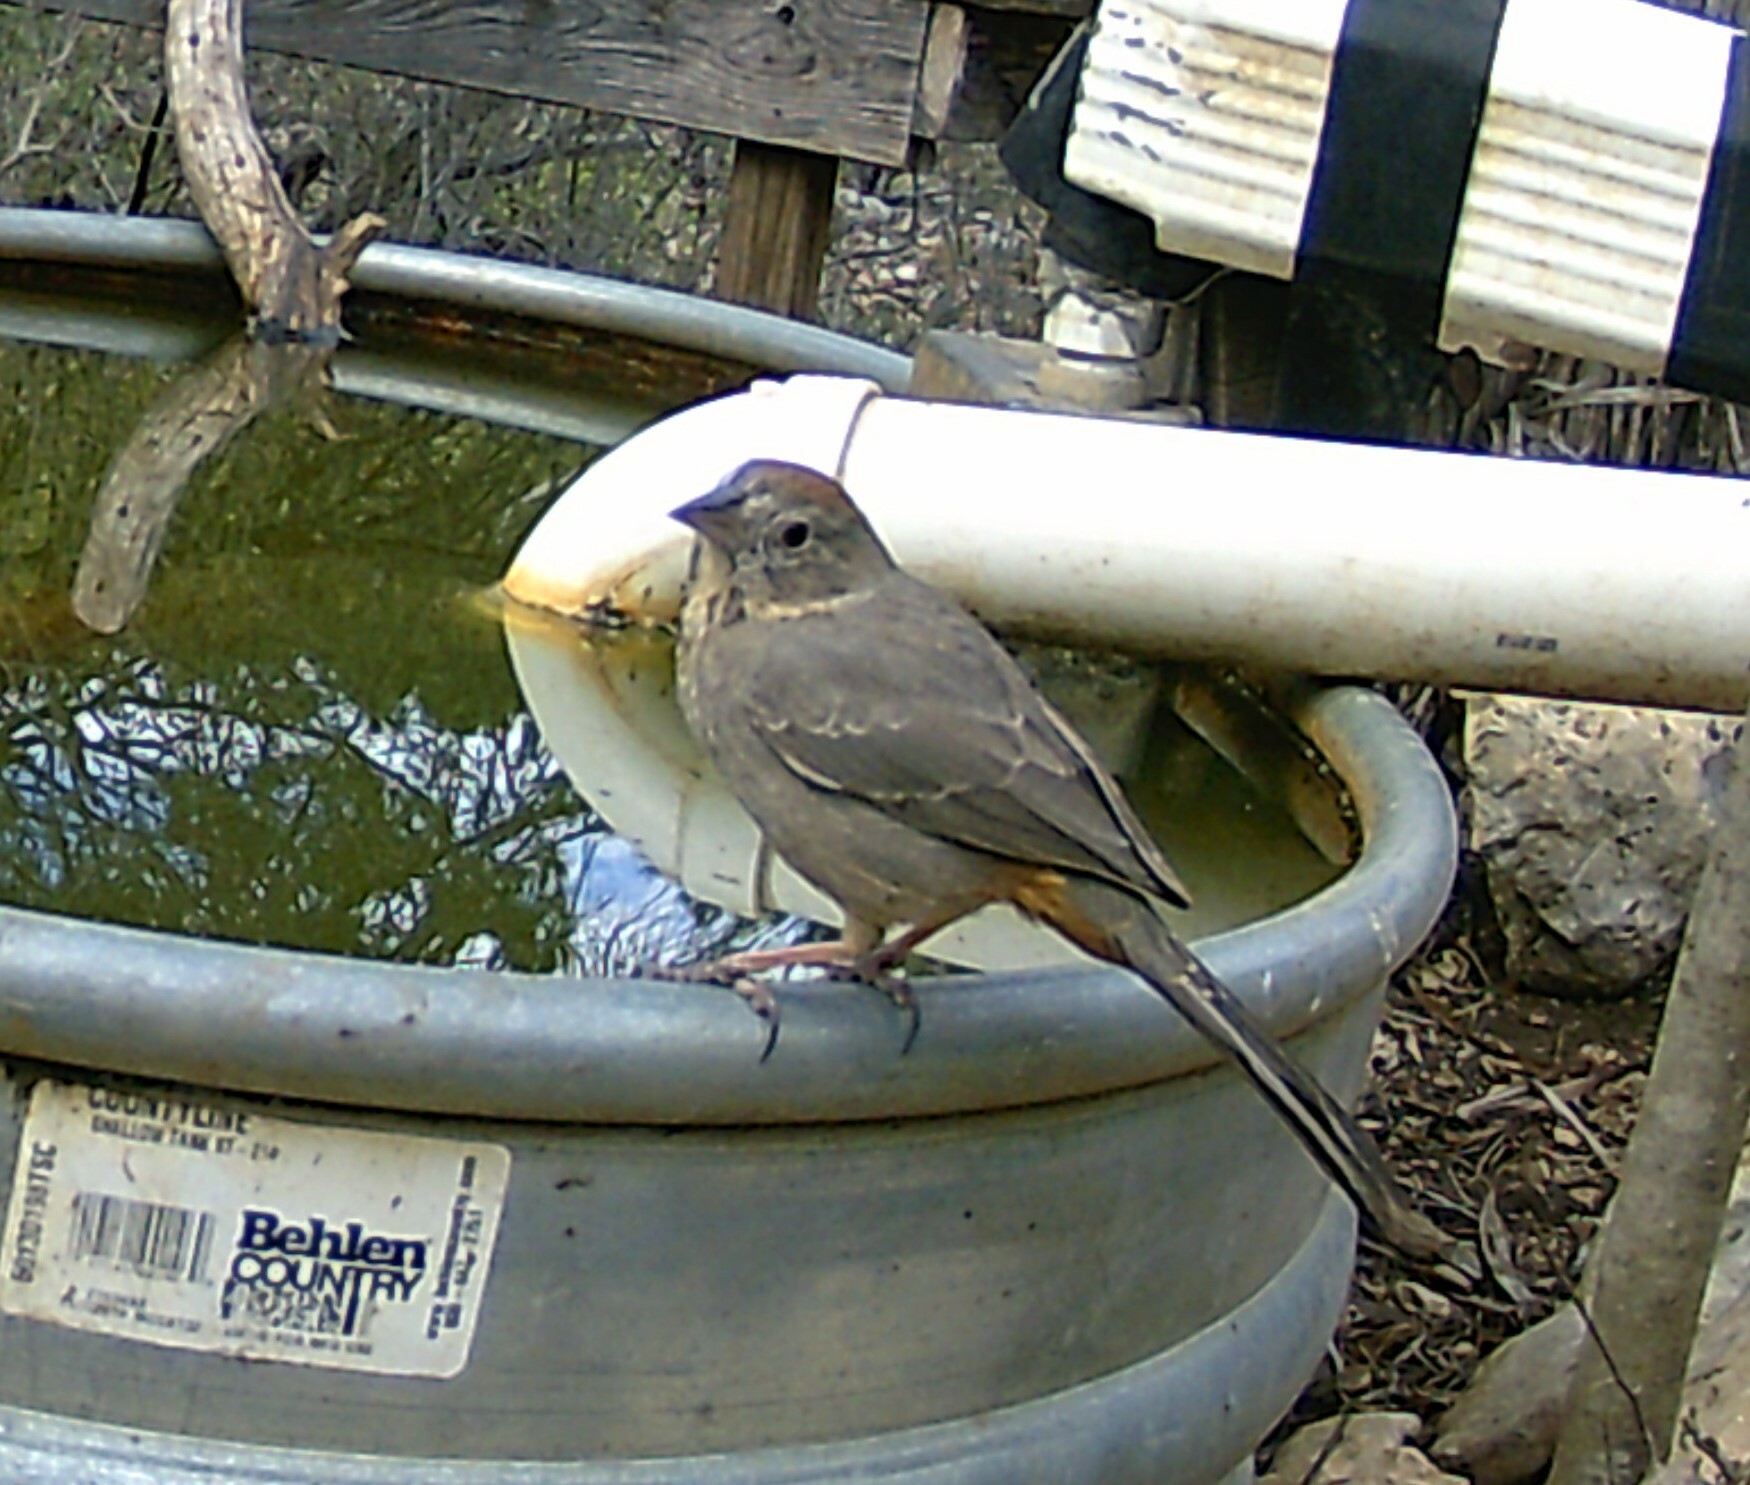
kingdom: Animalia
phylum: Chordata
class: Aves
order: Passeriformes
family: Passerellidae
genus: Melozone
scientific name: Melozone fusca
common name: Canyon towhee
